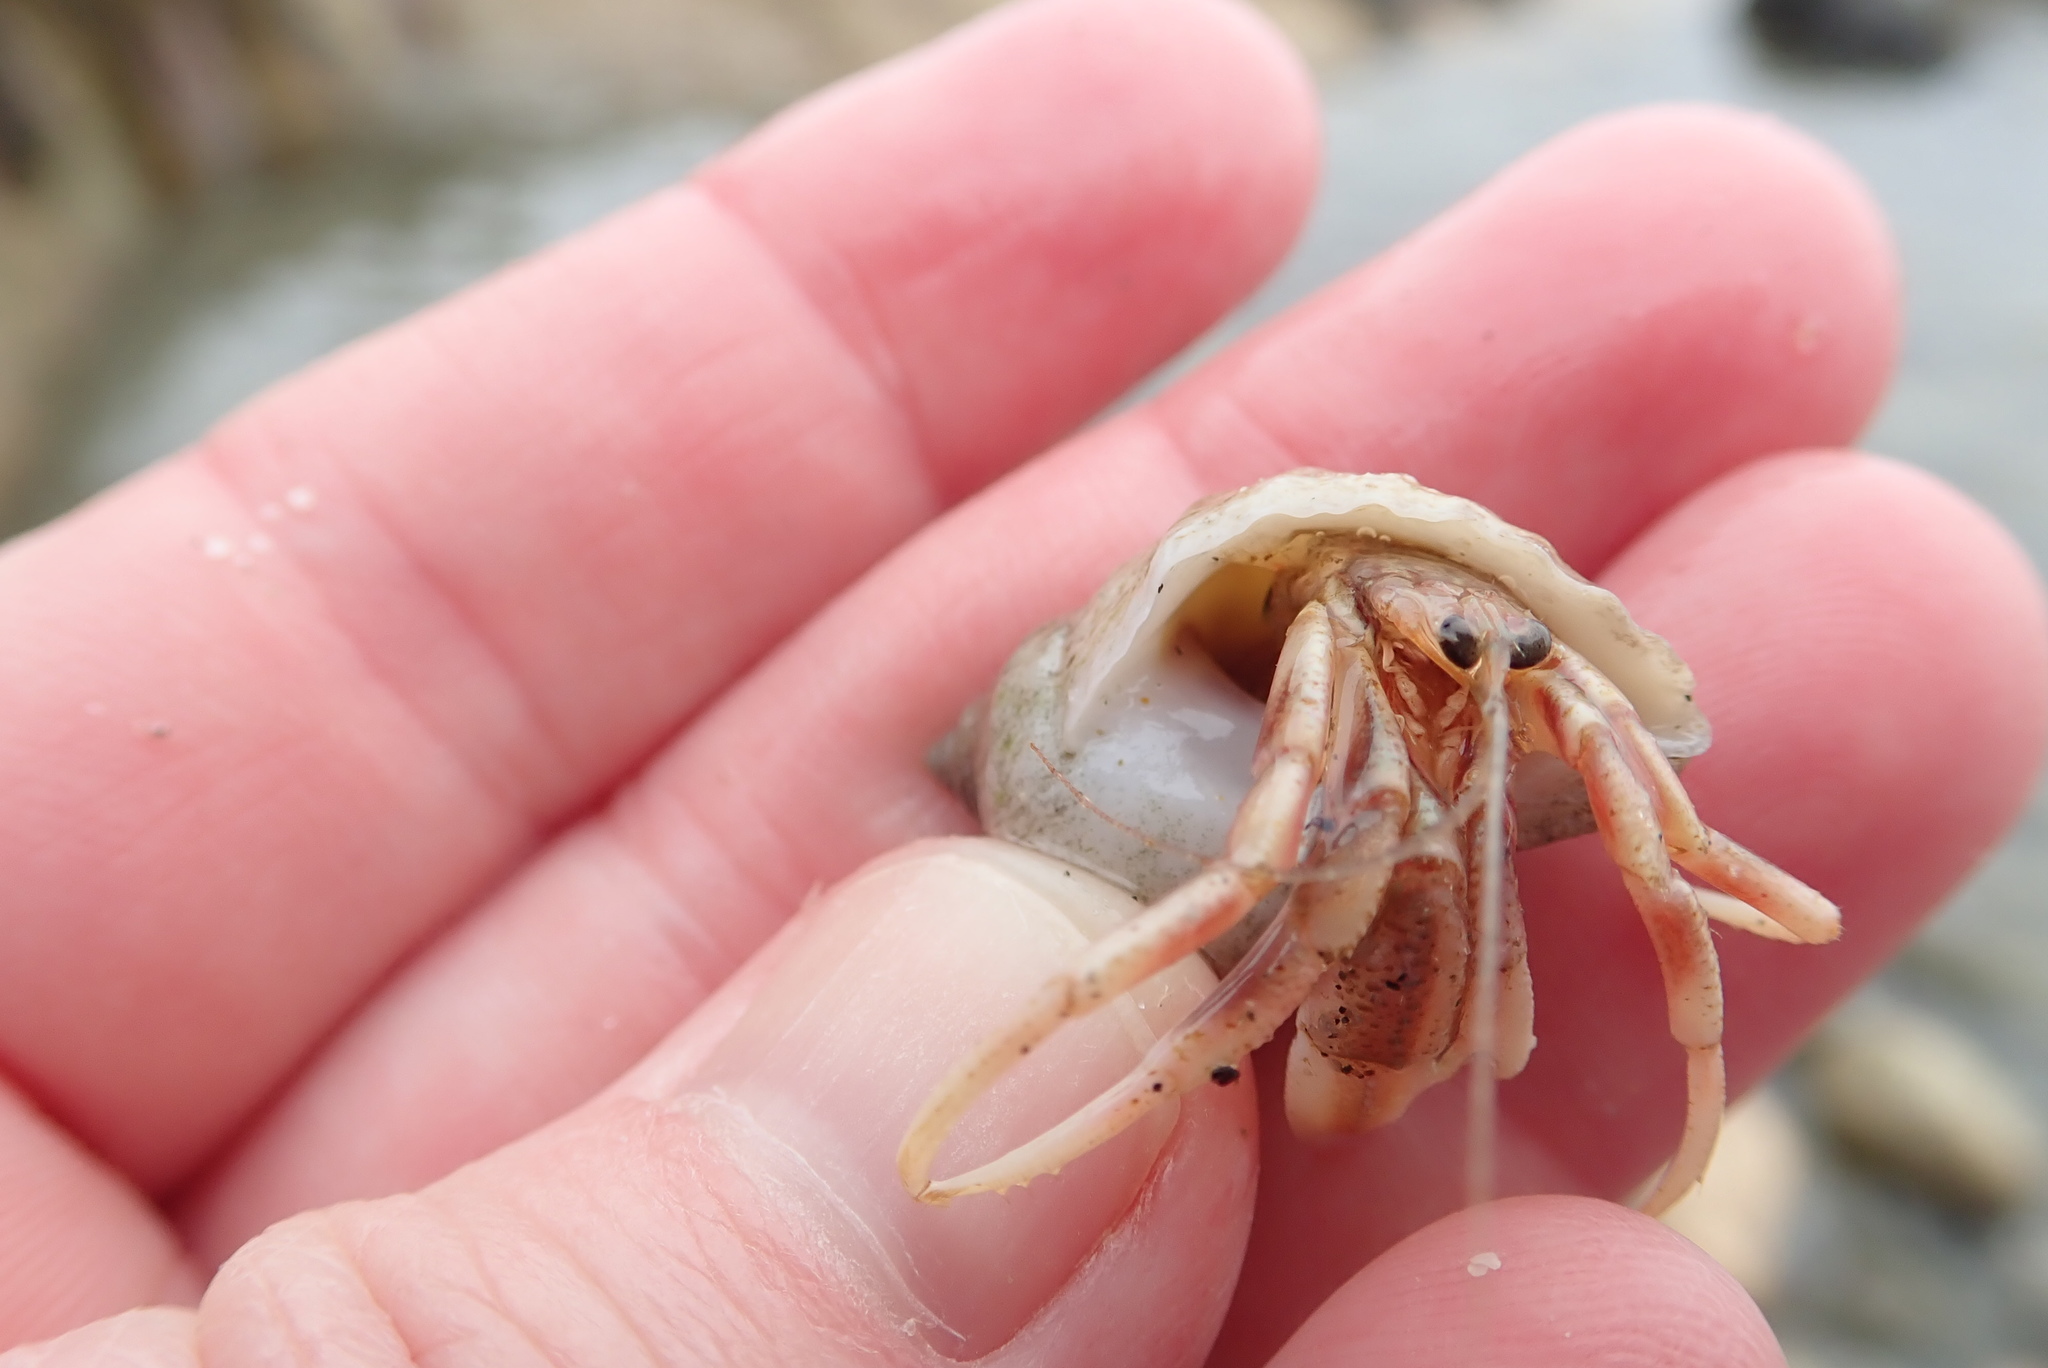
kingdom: Animalia
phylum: Arthropoda
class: Malacostraca
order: Decapoda
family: Paguridae
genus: Pagurus
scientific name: Pagurus longicarpus
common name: Long-armed hermit crab
